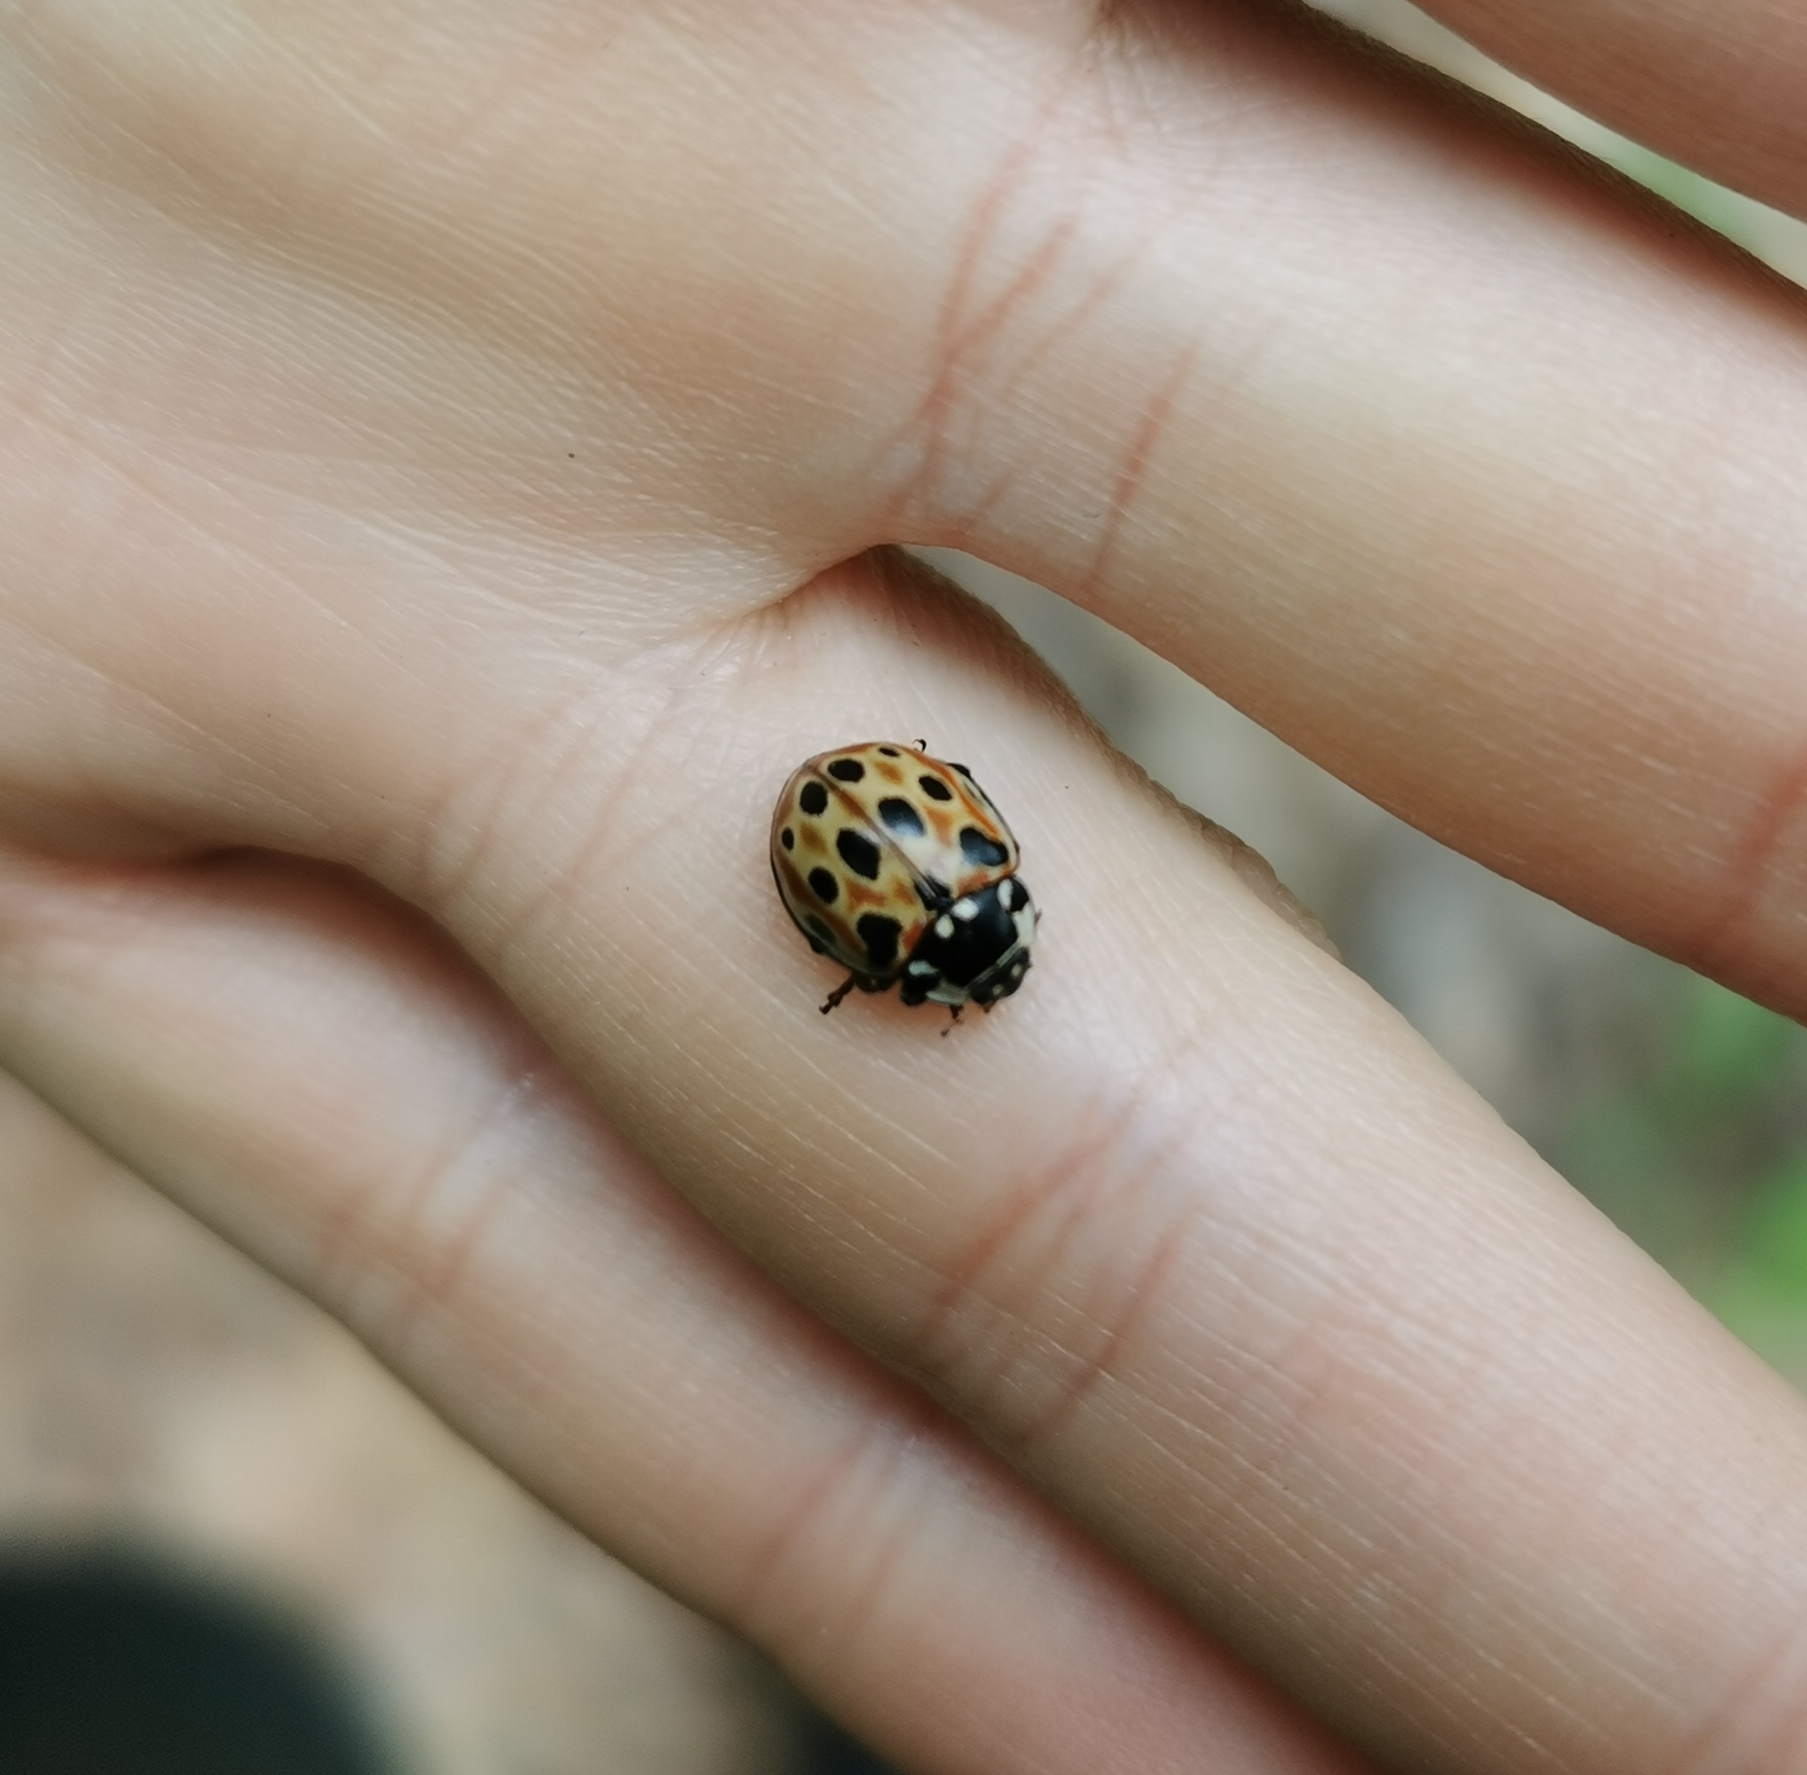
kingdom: Animalia
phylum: Arthropoda
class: Insecta
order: Coleoptera
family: Coccinellidae
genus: Anatis
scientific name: Anatis ocellata
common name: Eyed ladybird
